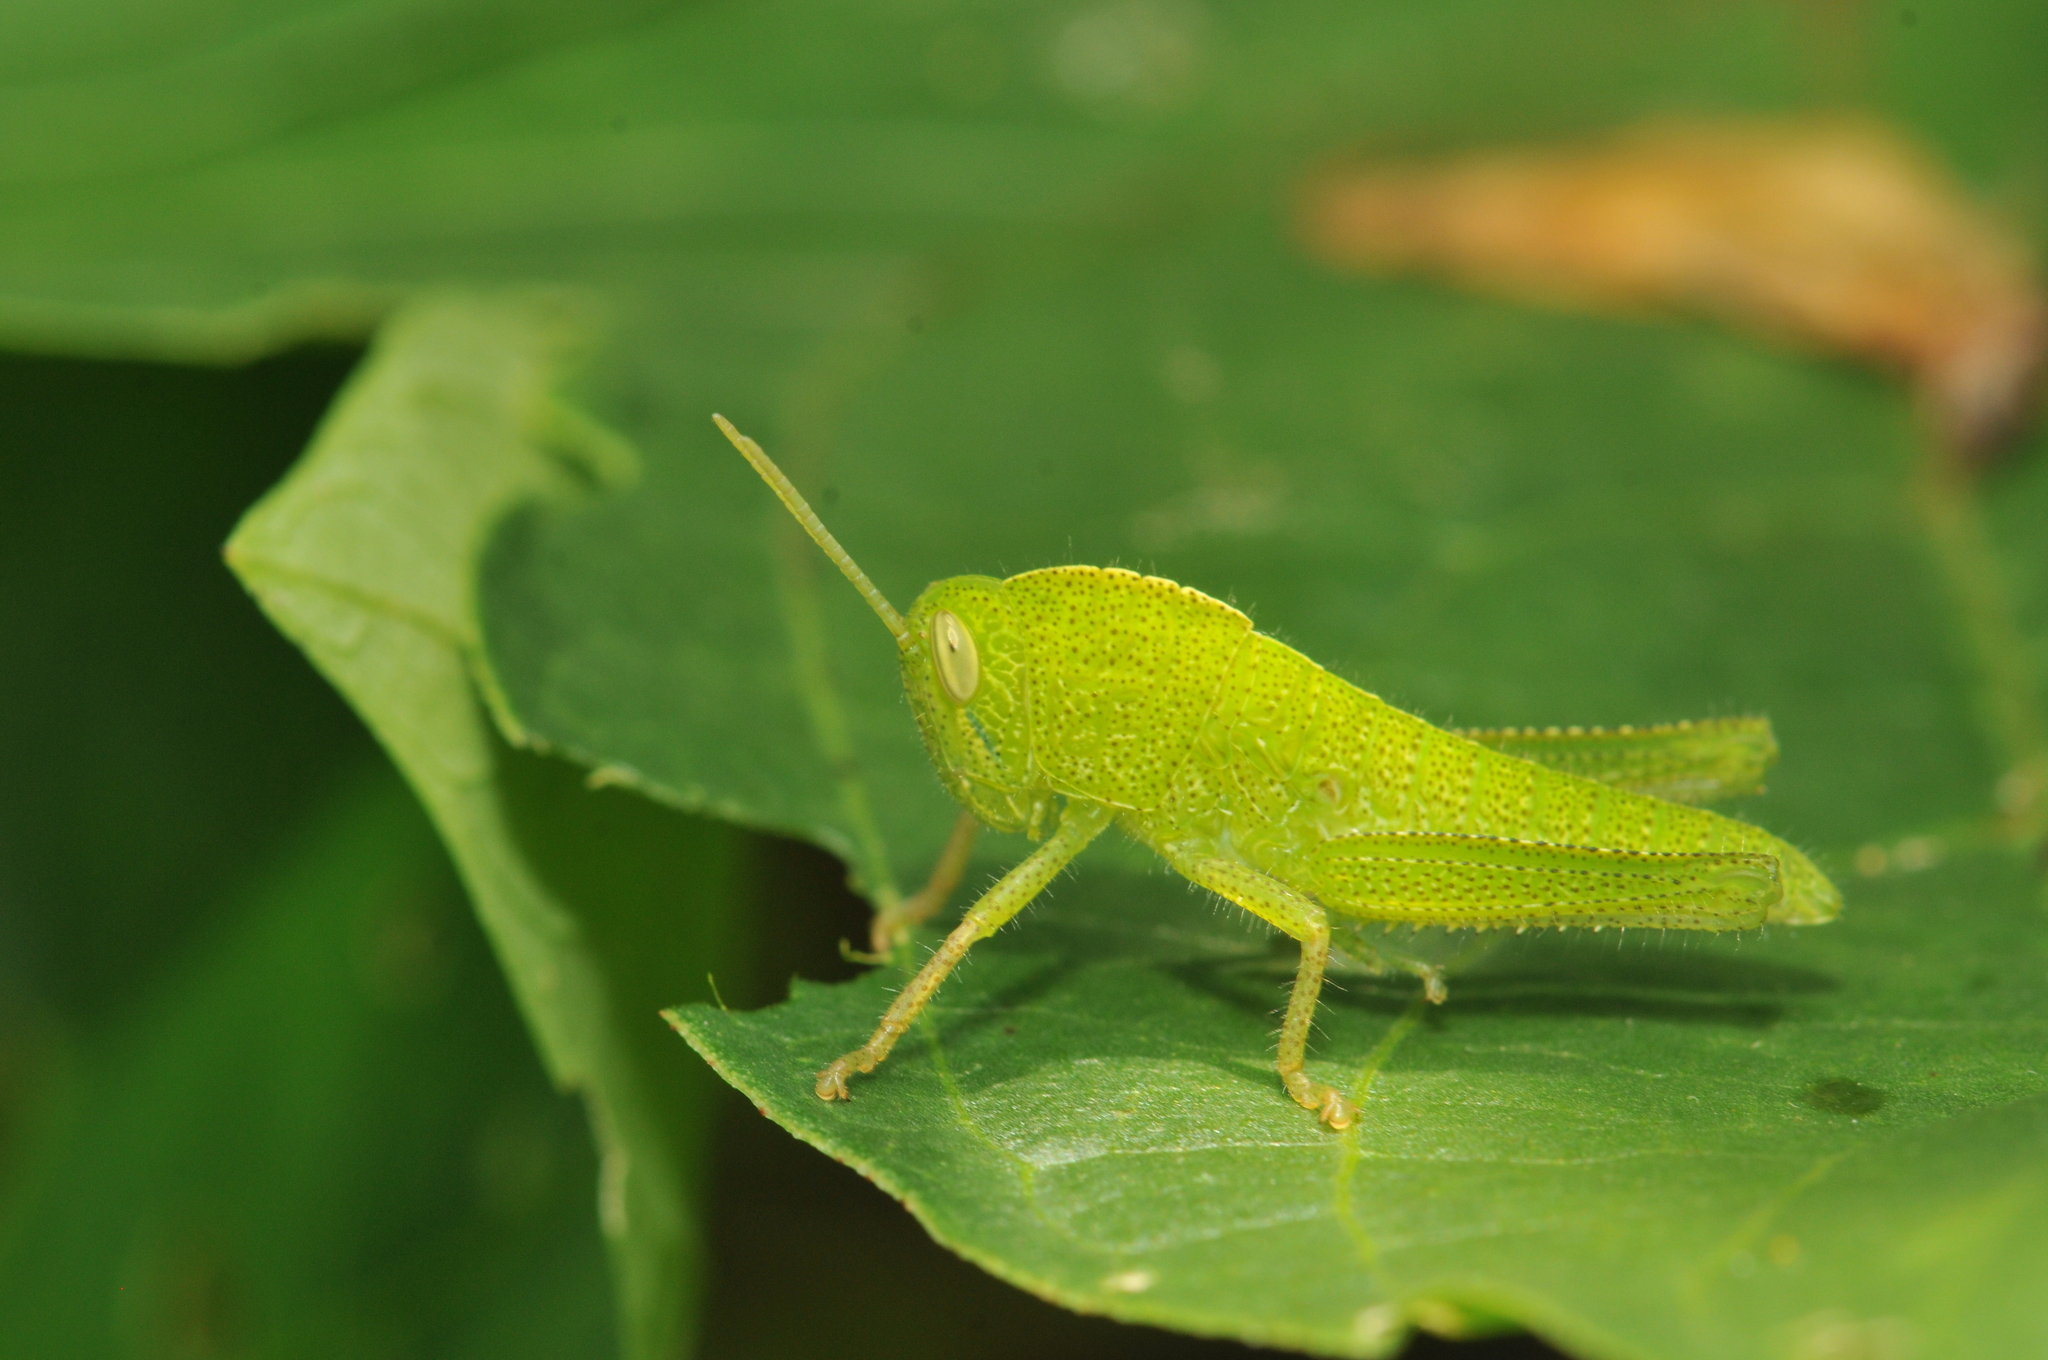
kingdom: Animalia
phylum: Arthropoda
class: Insecta
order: Orthoptera
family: Acrididae
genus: Chondracris
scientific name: Chondracris rosea
